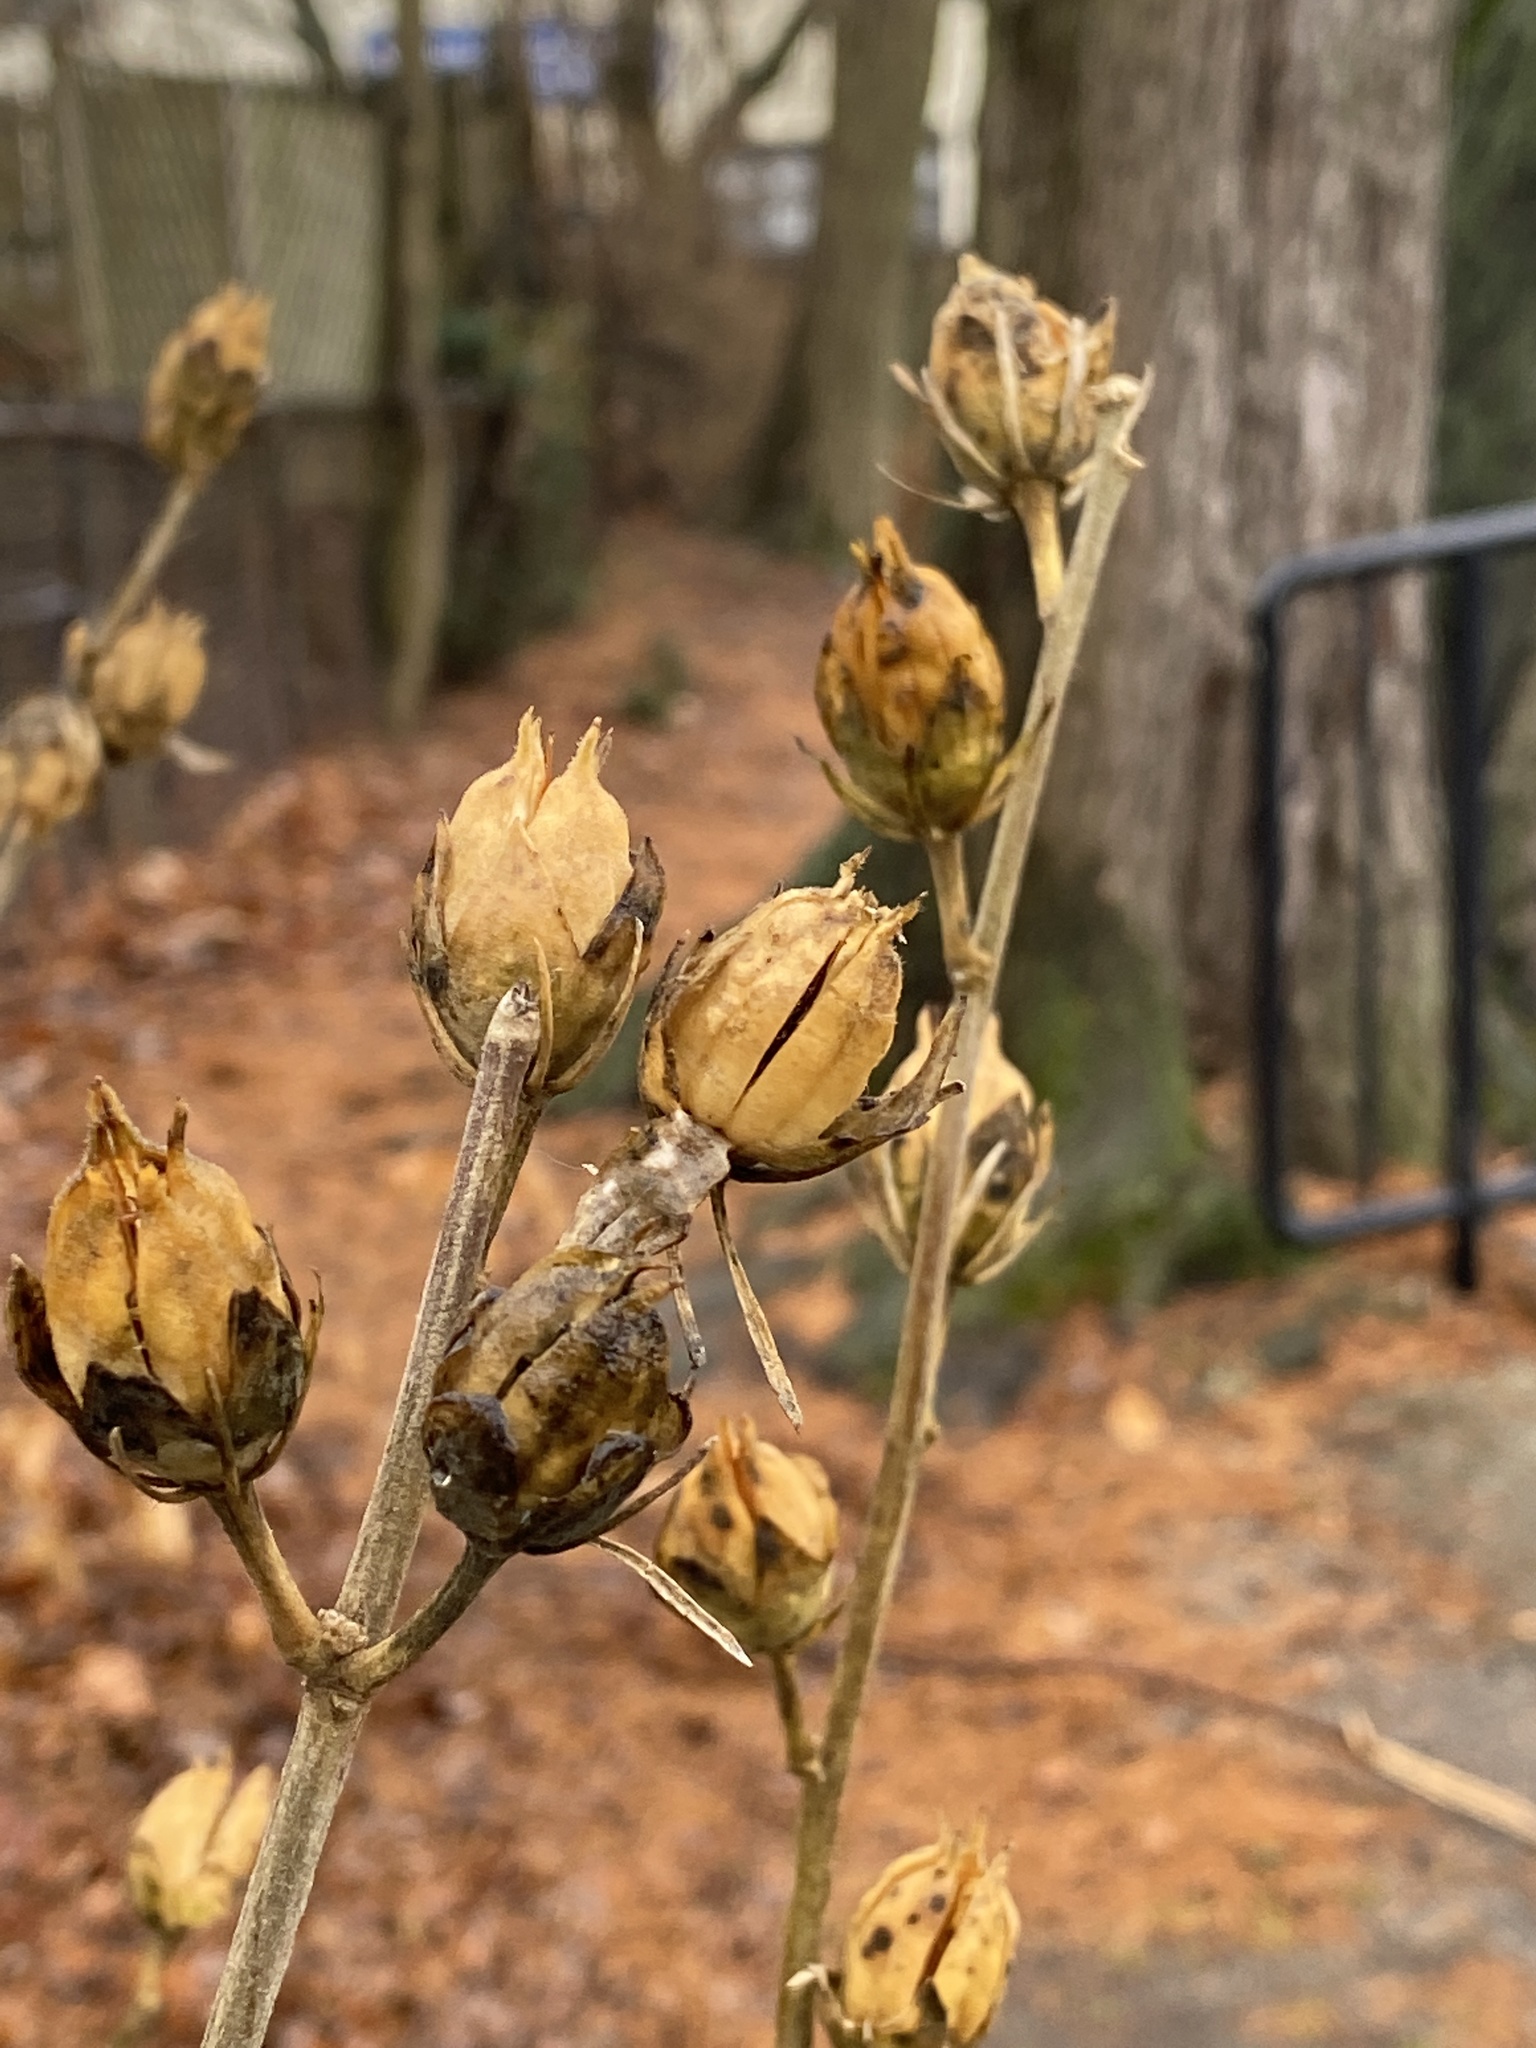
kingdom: Plantae
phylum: Tracheophyta
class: Magnoliopsida
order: Malvales
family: Malvaceae
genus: Hibiscus
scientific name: Hibiscus syriacus
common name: Syrian ketmia
